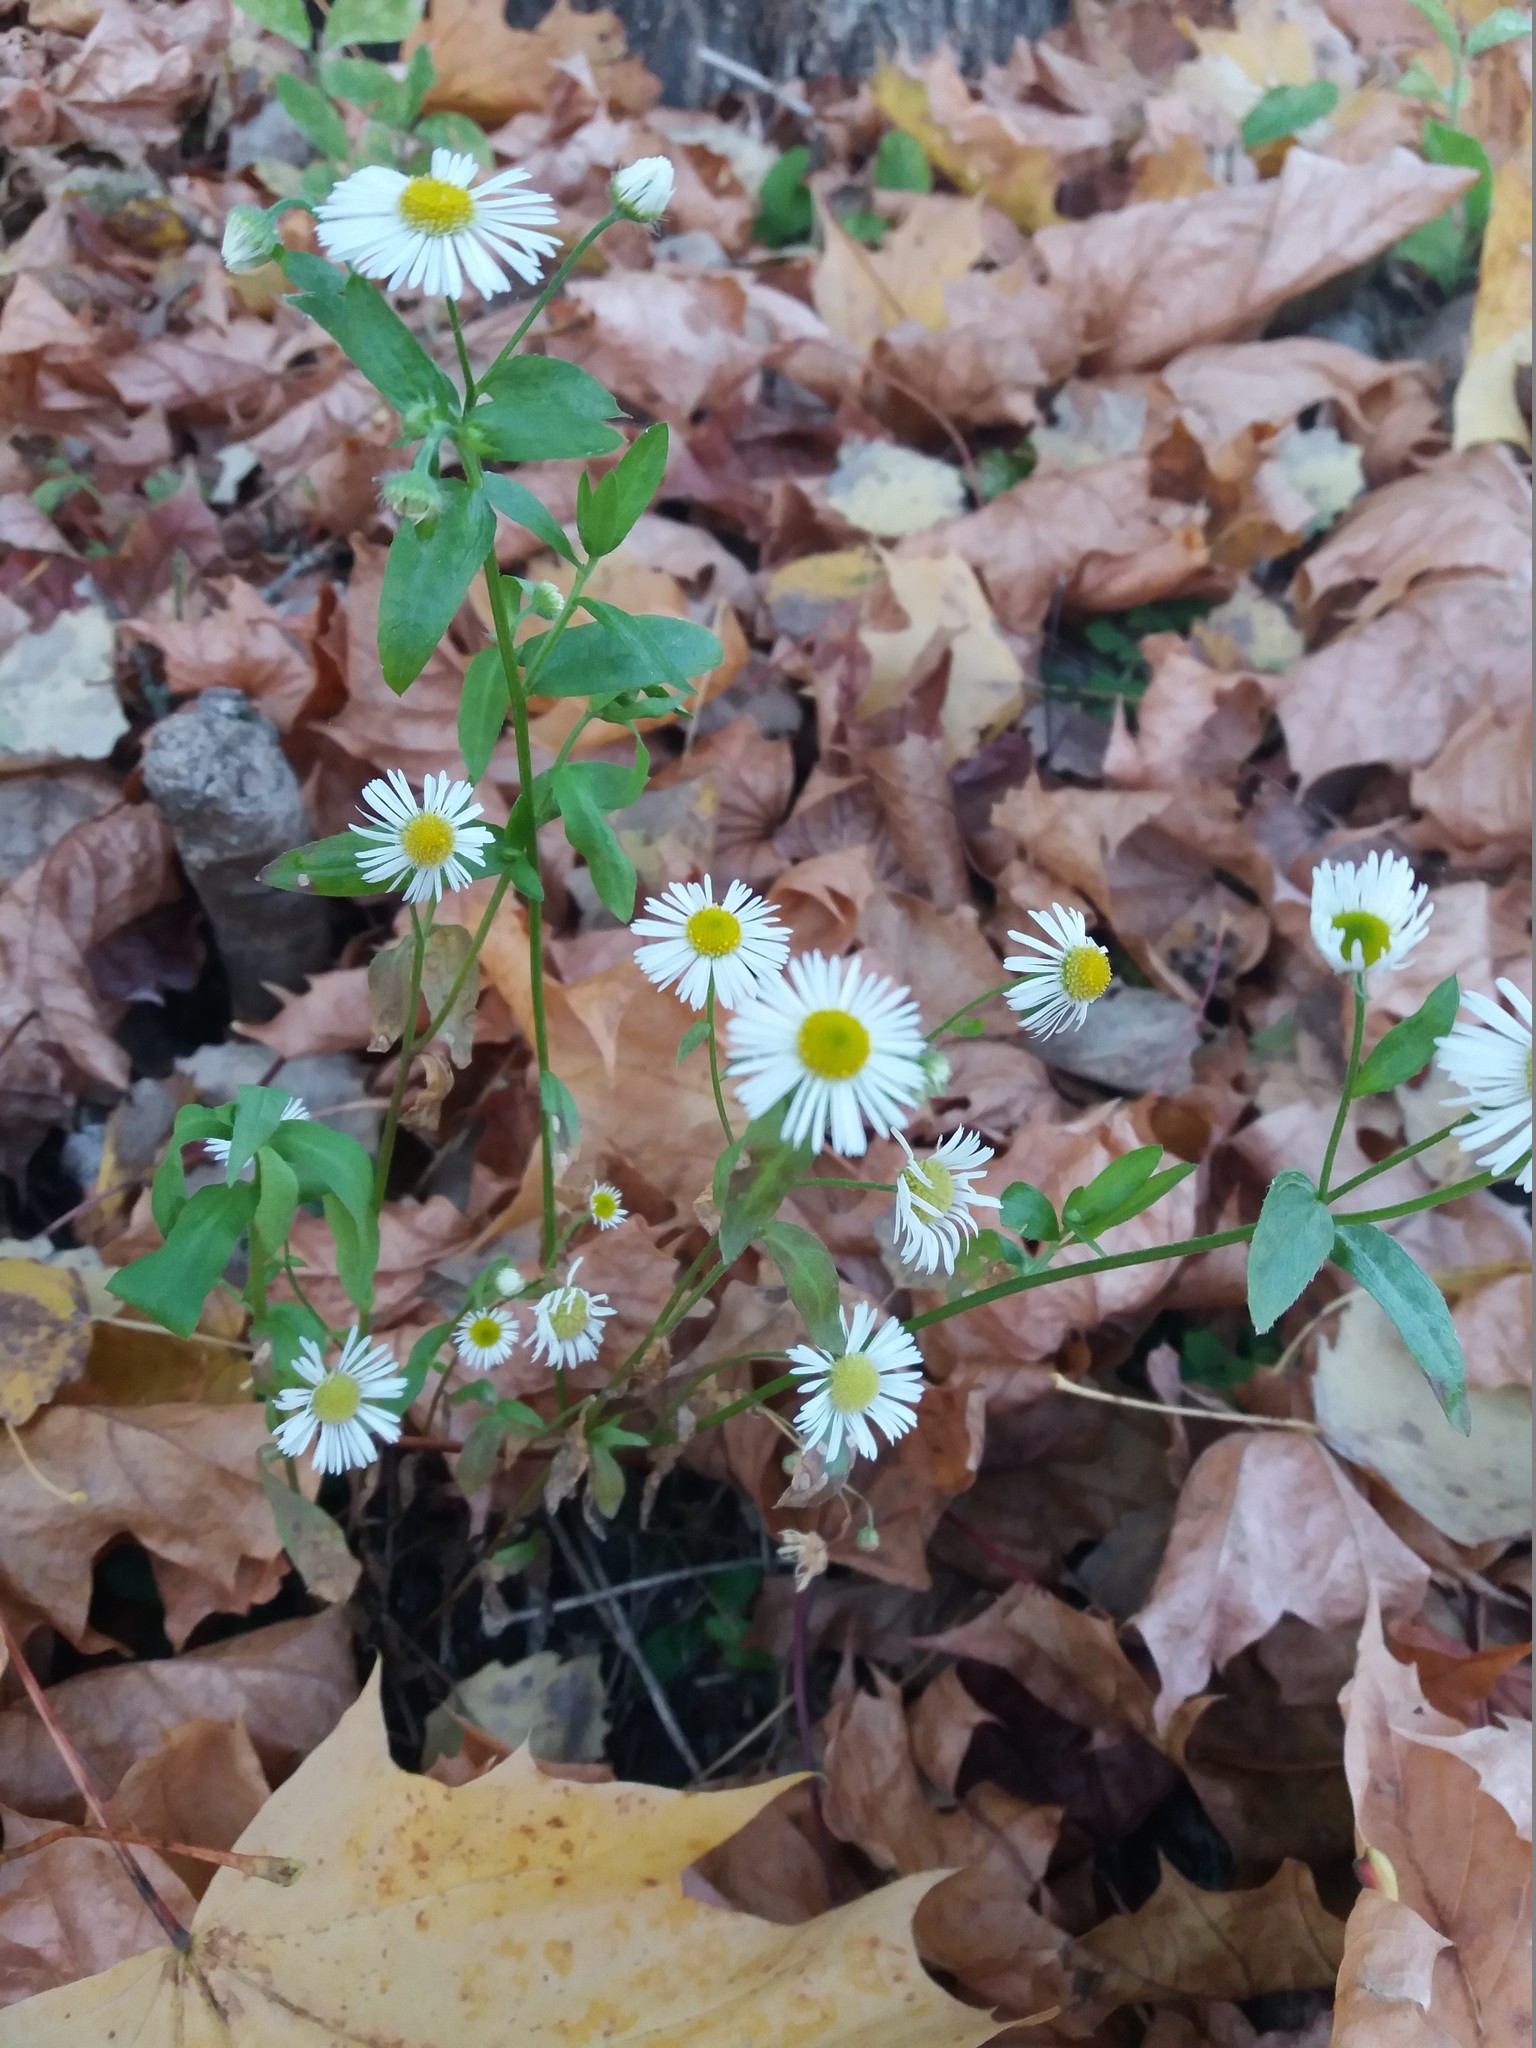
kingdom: Plantae
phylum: Tracheophyta
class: Magnoliopsida
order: Asterales
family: Asteraceae
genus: Erigeron
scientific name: Erigeron annuus
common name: Tall fleabane
